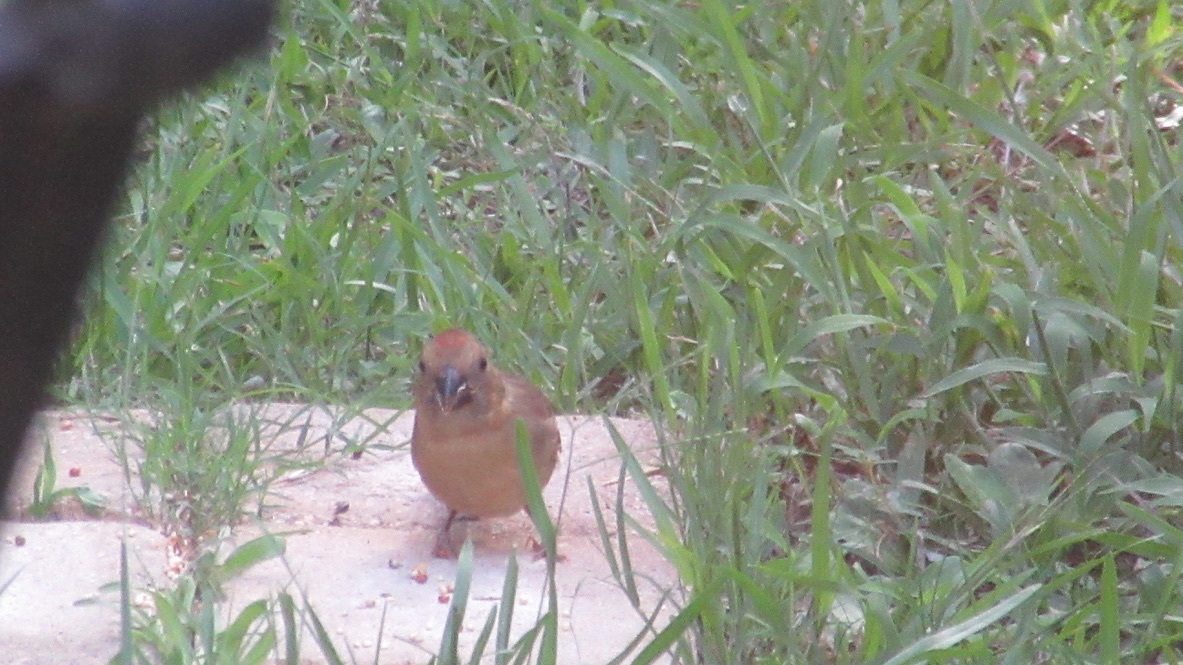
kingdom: Animalia
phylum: Chordata
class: Aves
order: Passeriformes
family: Cardinalidae
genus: Cardinalis
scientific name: Cardinalis cardinalis
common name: Northern cardinal
